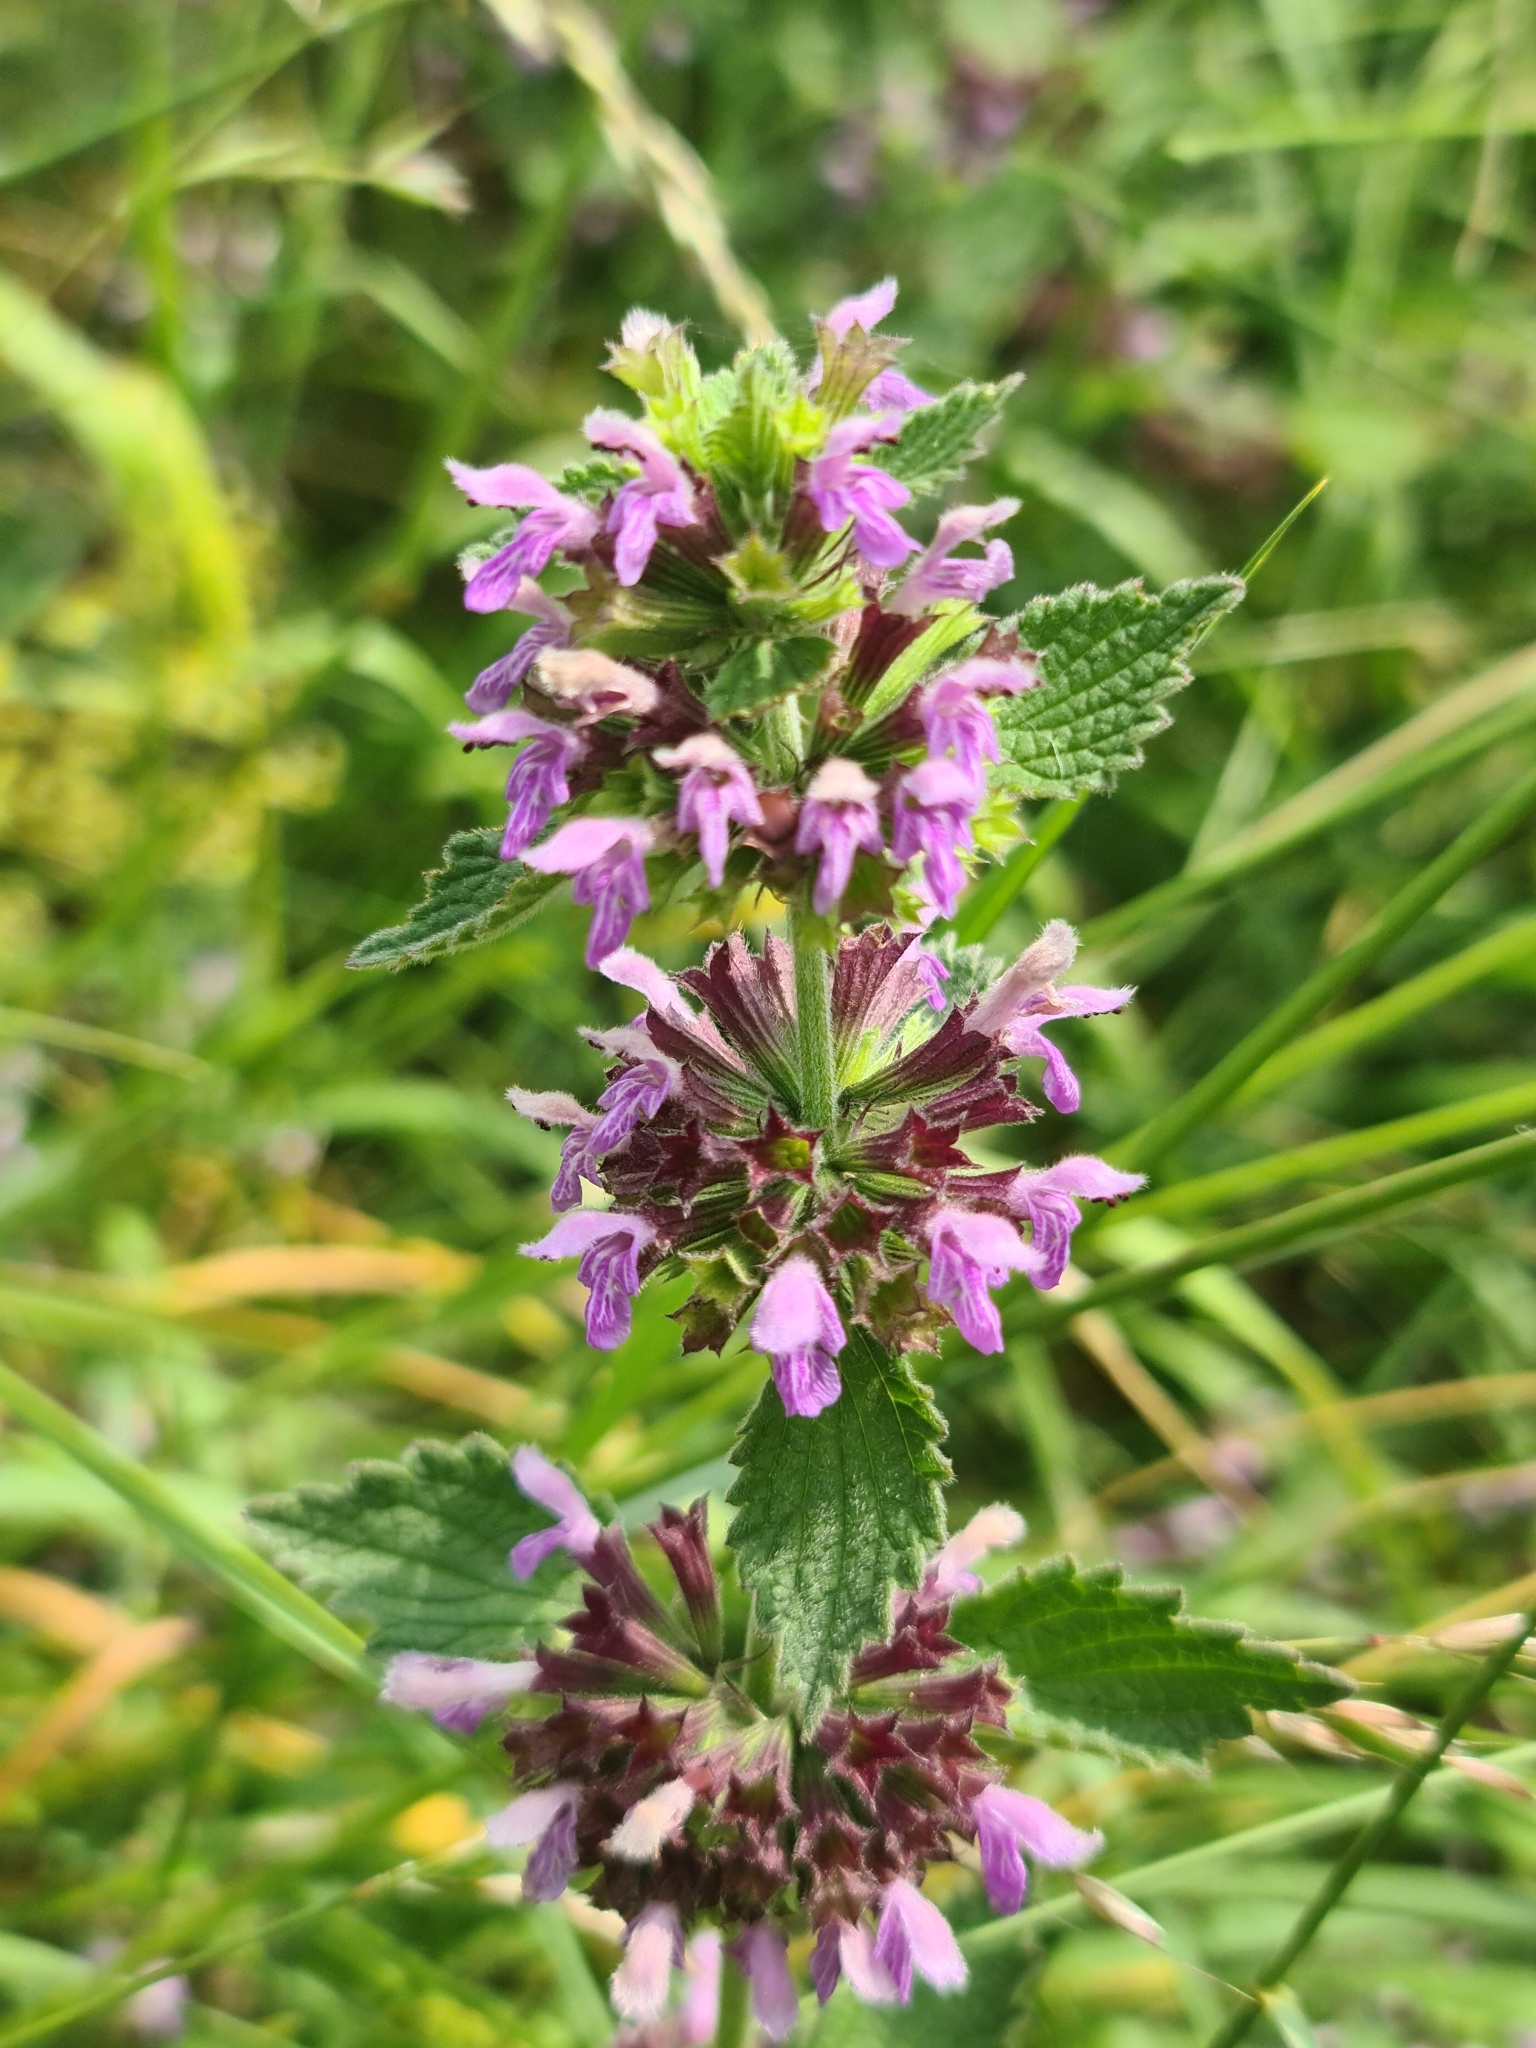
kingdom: Plantae
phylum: Tracheophyta
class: Magnoliopsida
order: Lamiales
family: Lamiaceae
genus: Ballota
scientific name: Ballota nigra
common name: Black horehound
